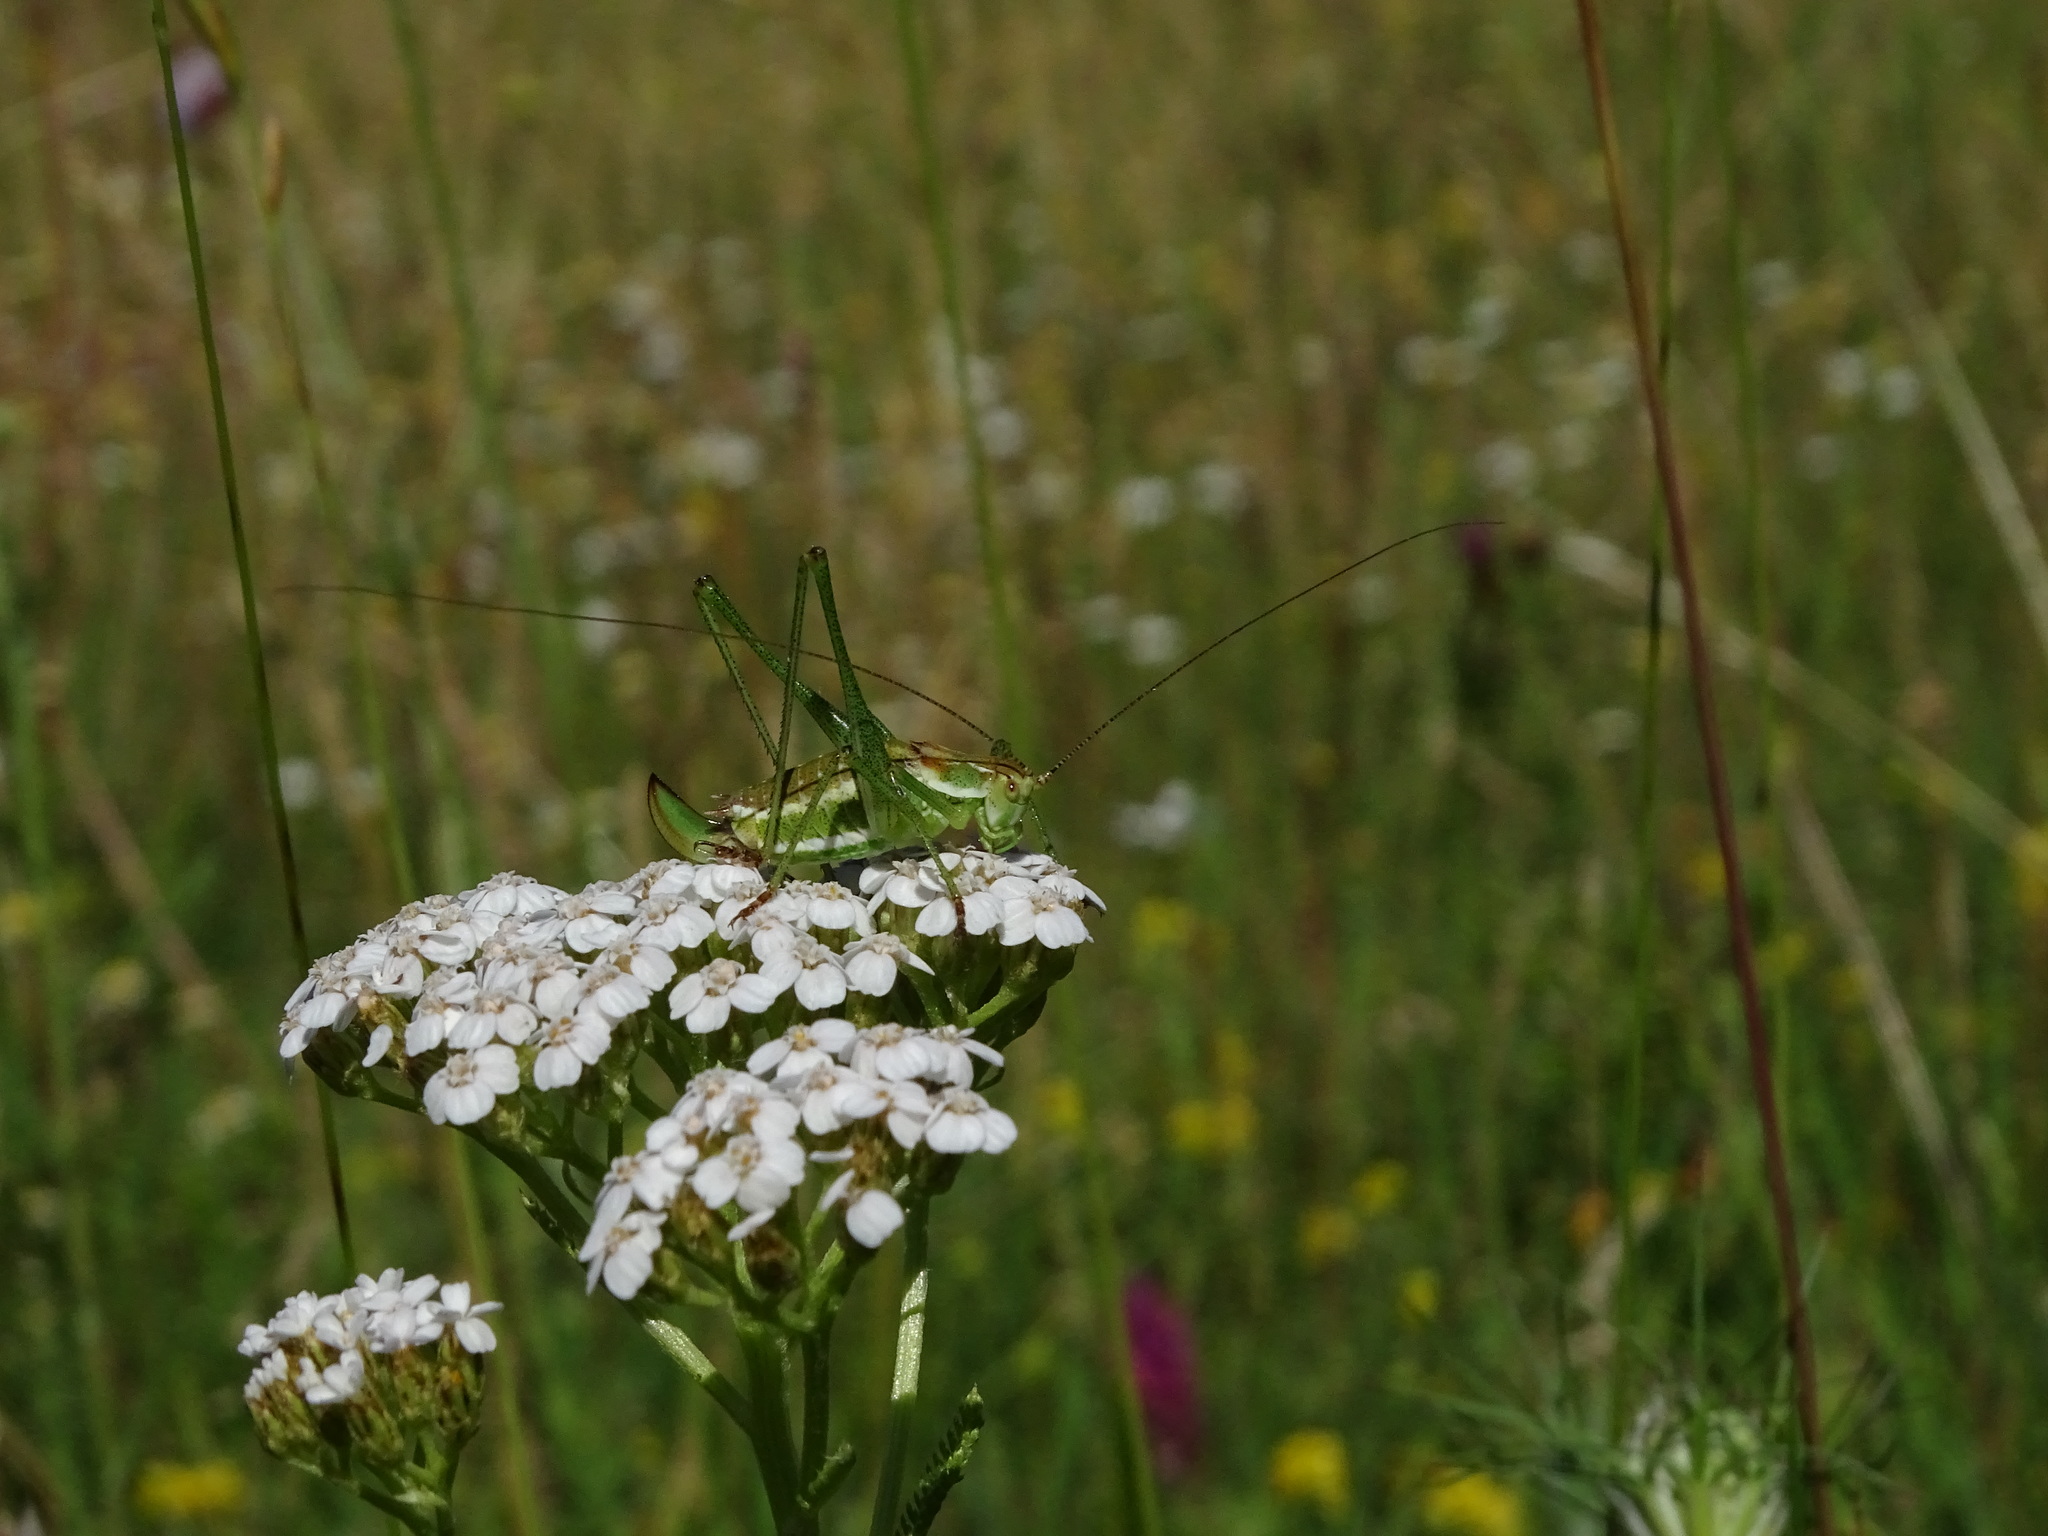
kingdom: Animalia
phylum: Arthropoda
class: Insecta
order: Orthoptera
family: Tettigoniidae
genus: Leptophyes
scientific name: Leptophyes albovittata
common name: Striped bush-cricket
